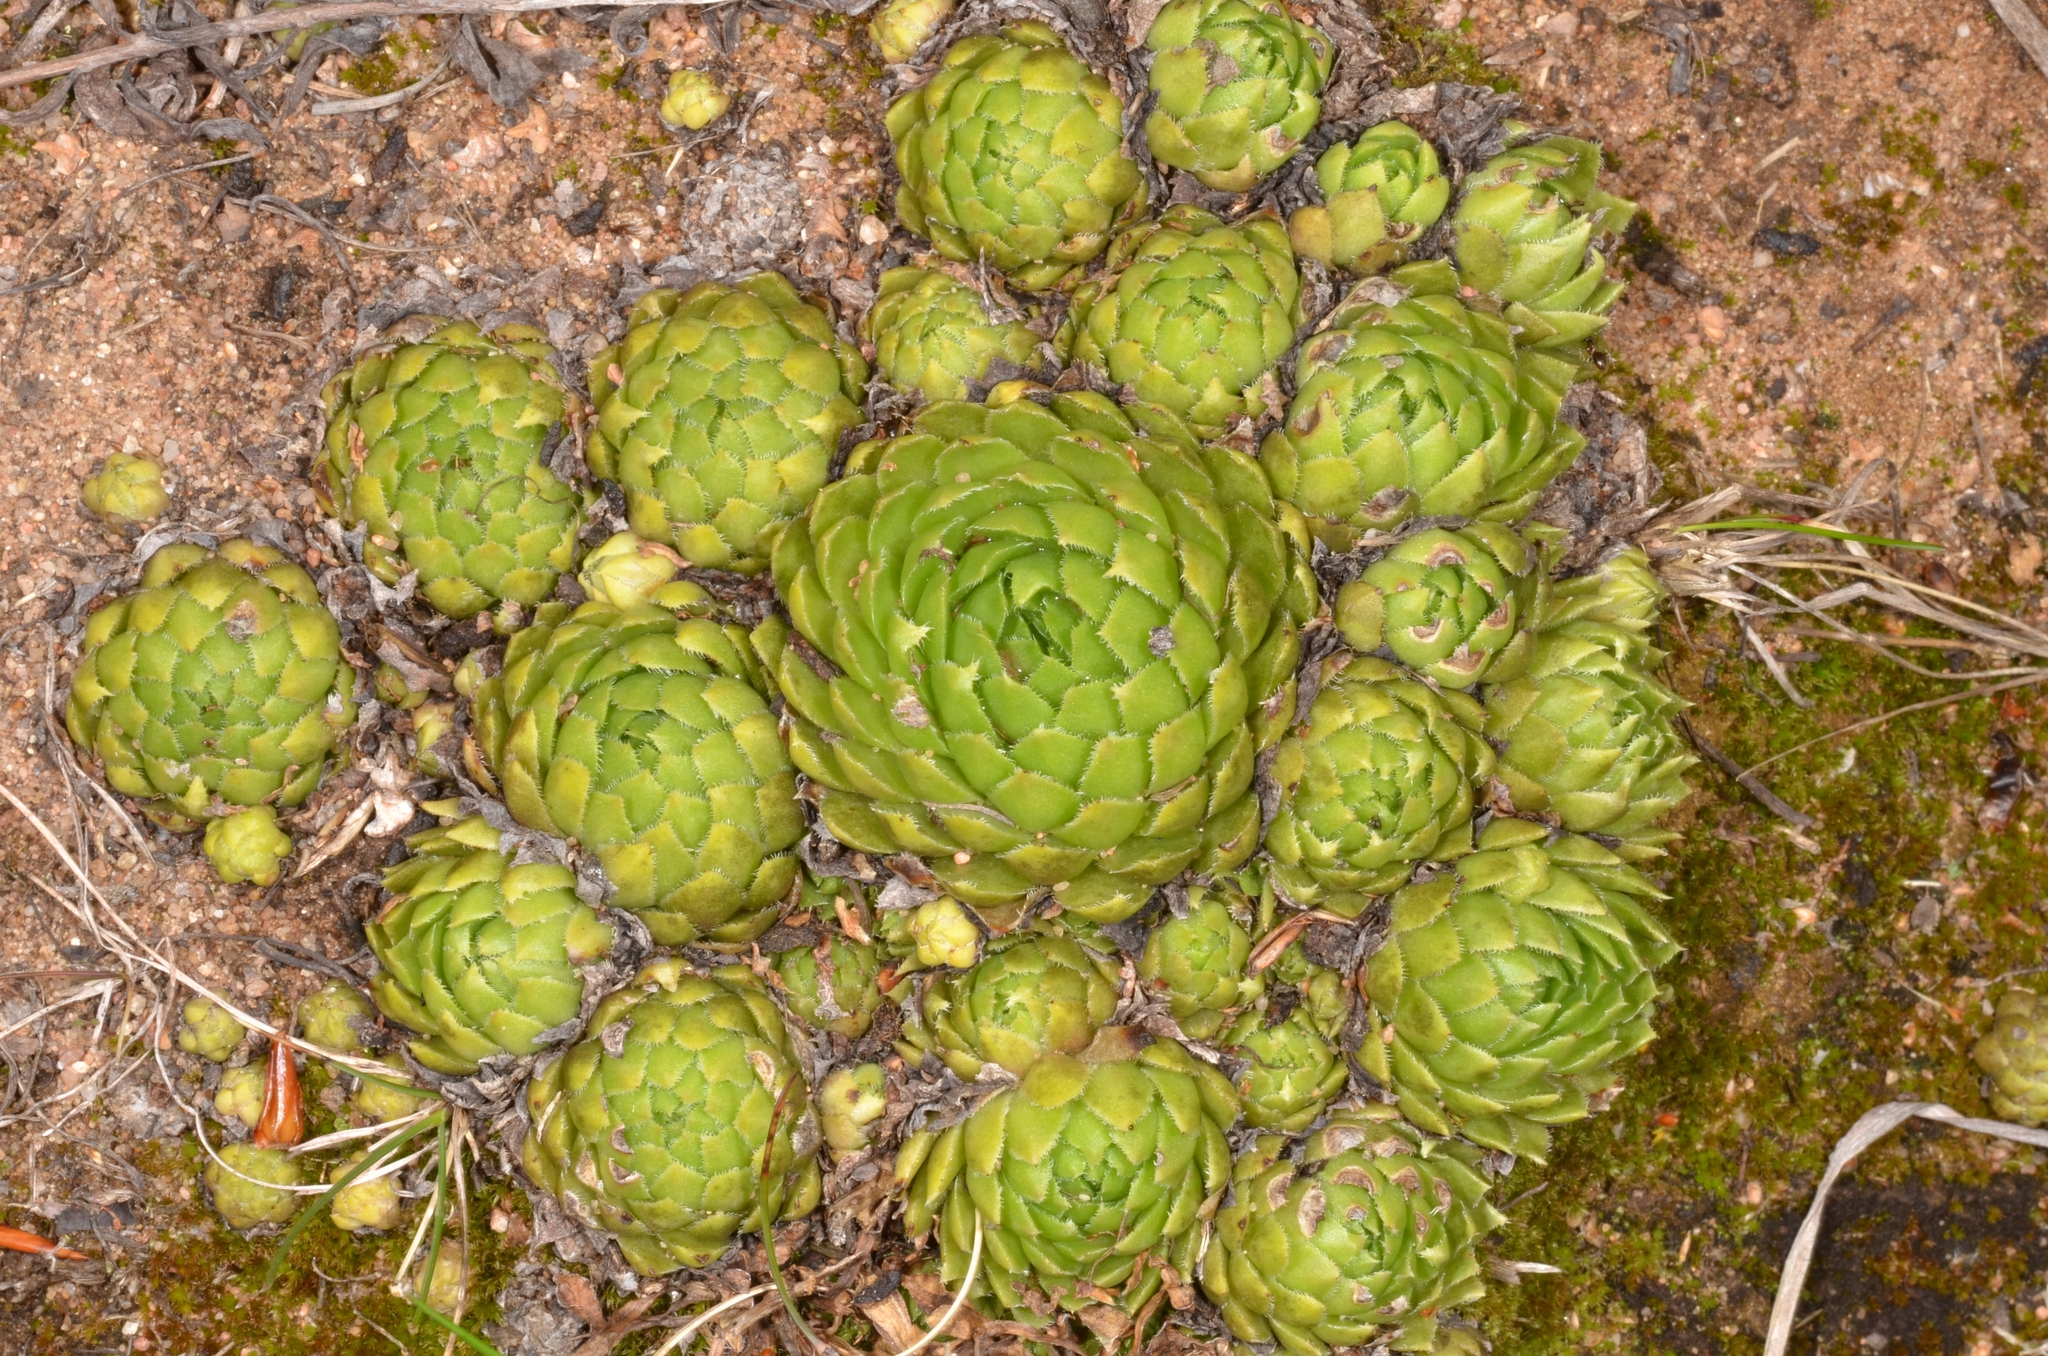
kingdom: Plantae
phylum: Tracheophyta
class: Magnoliopsida
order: Saxifragales
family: Crassulaceae
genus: Sempervivum
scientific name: Sempervivum globiferum
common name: Rolling hen-and-chicks
